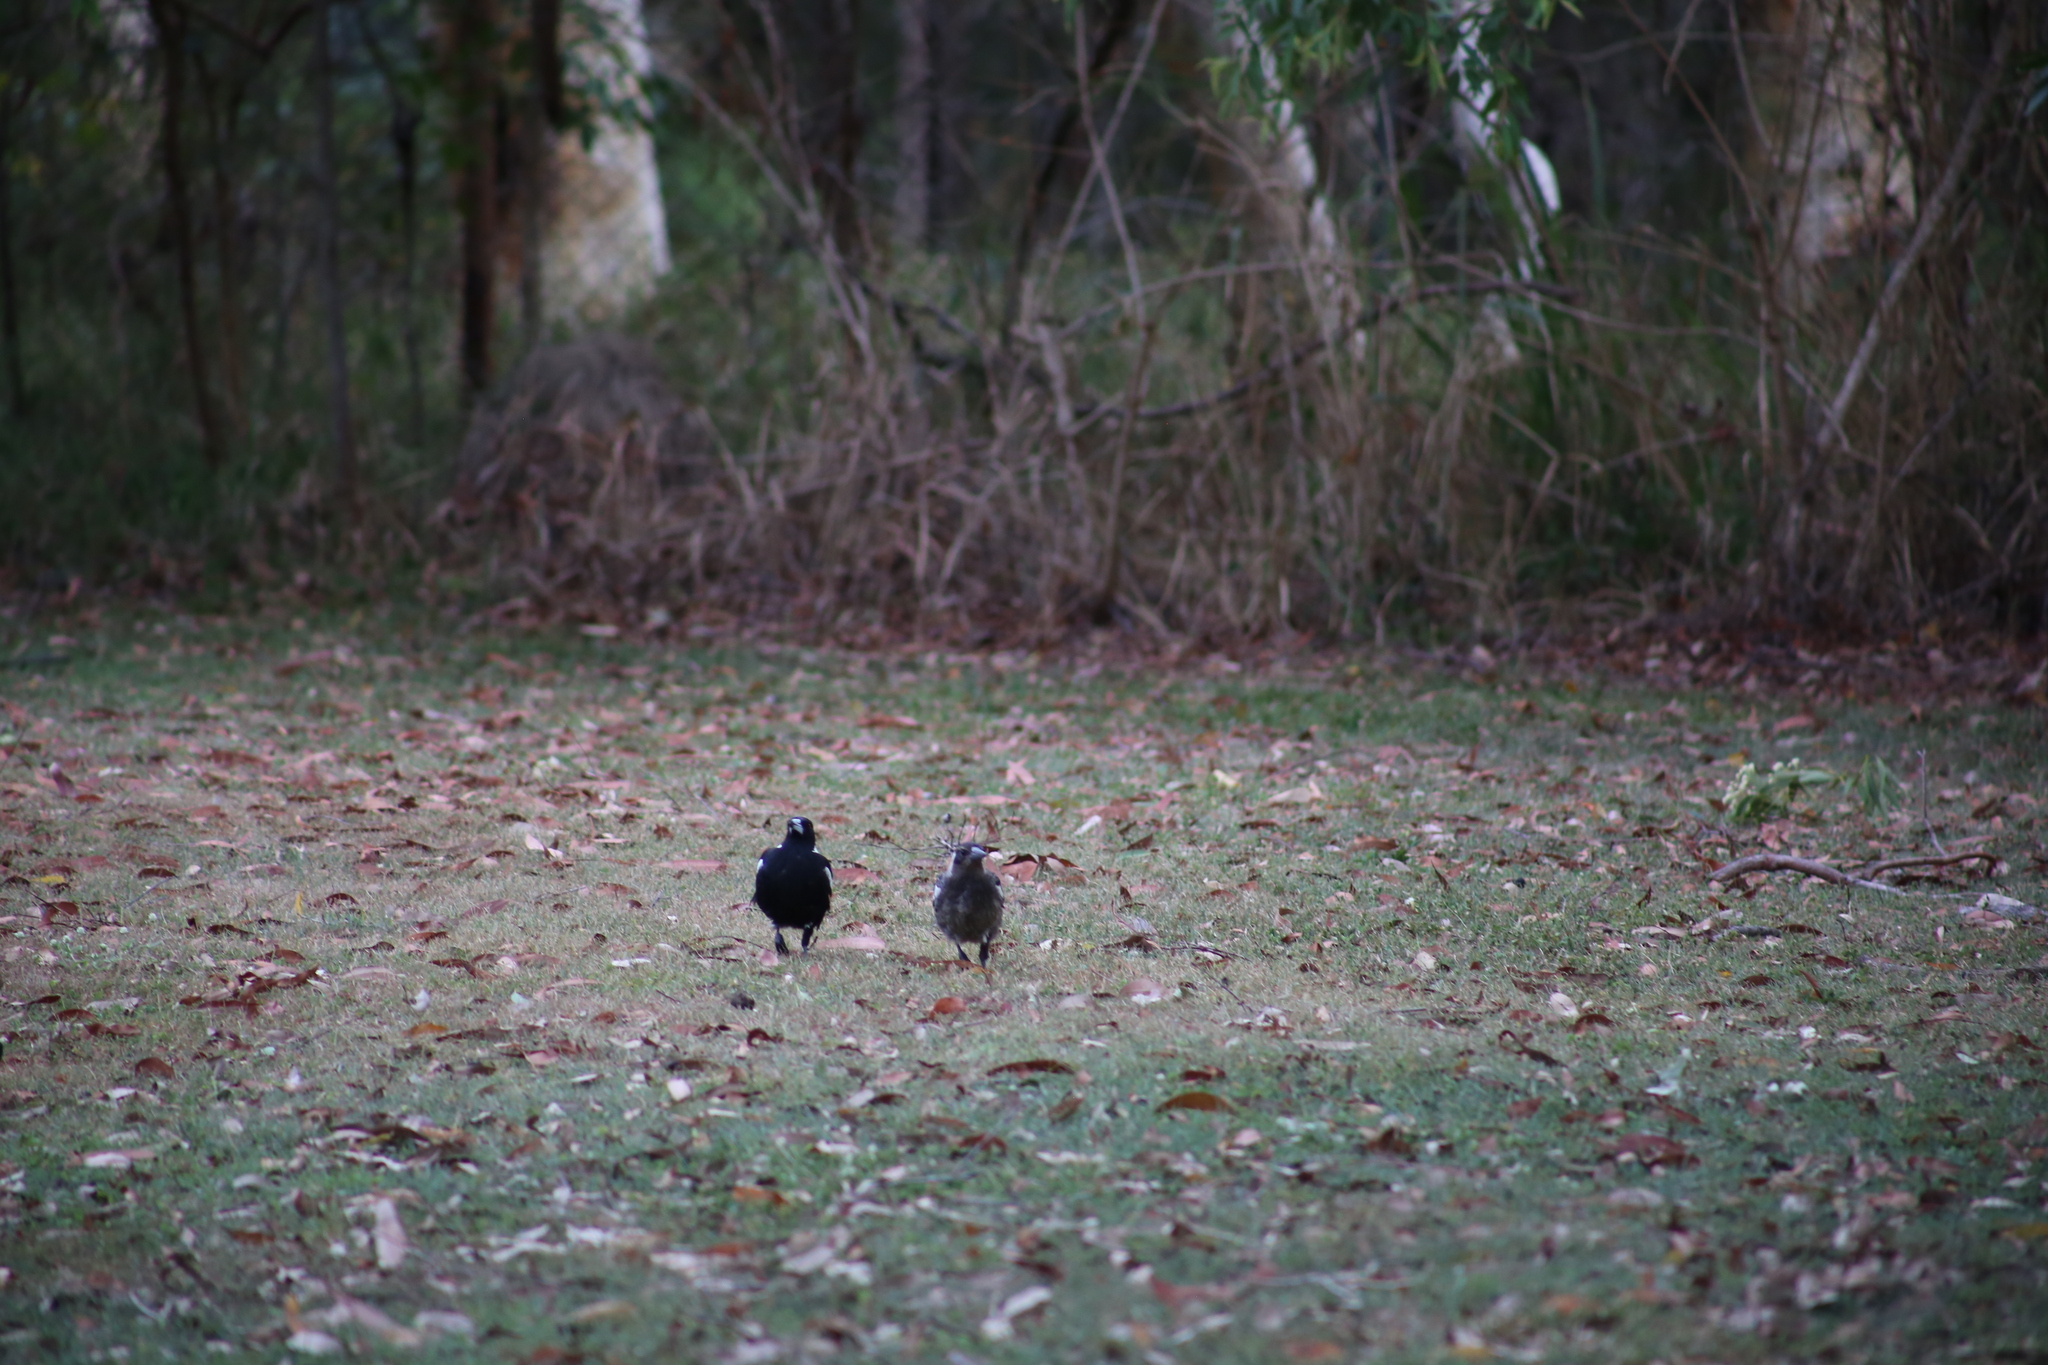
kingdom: Animalia
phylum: Chordata
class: Aves
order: Passeriformes
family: Cracticidae
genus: Gymnorhina
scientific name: Gymnorhina tibicen
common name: Australian magpie
